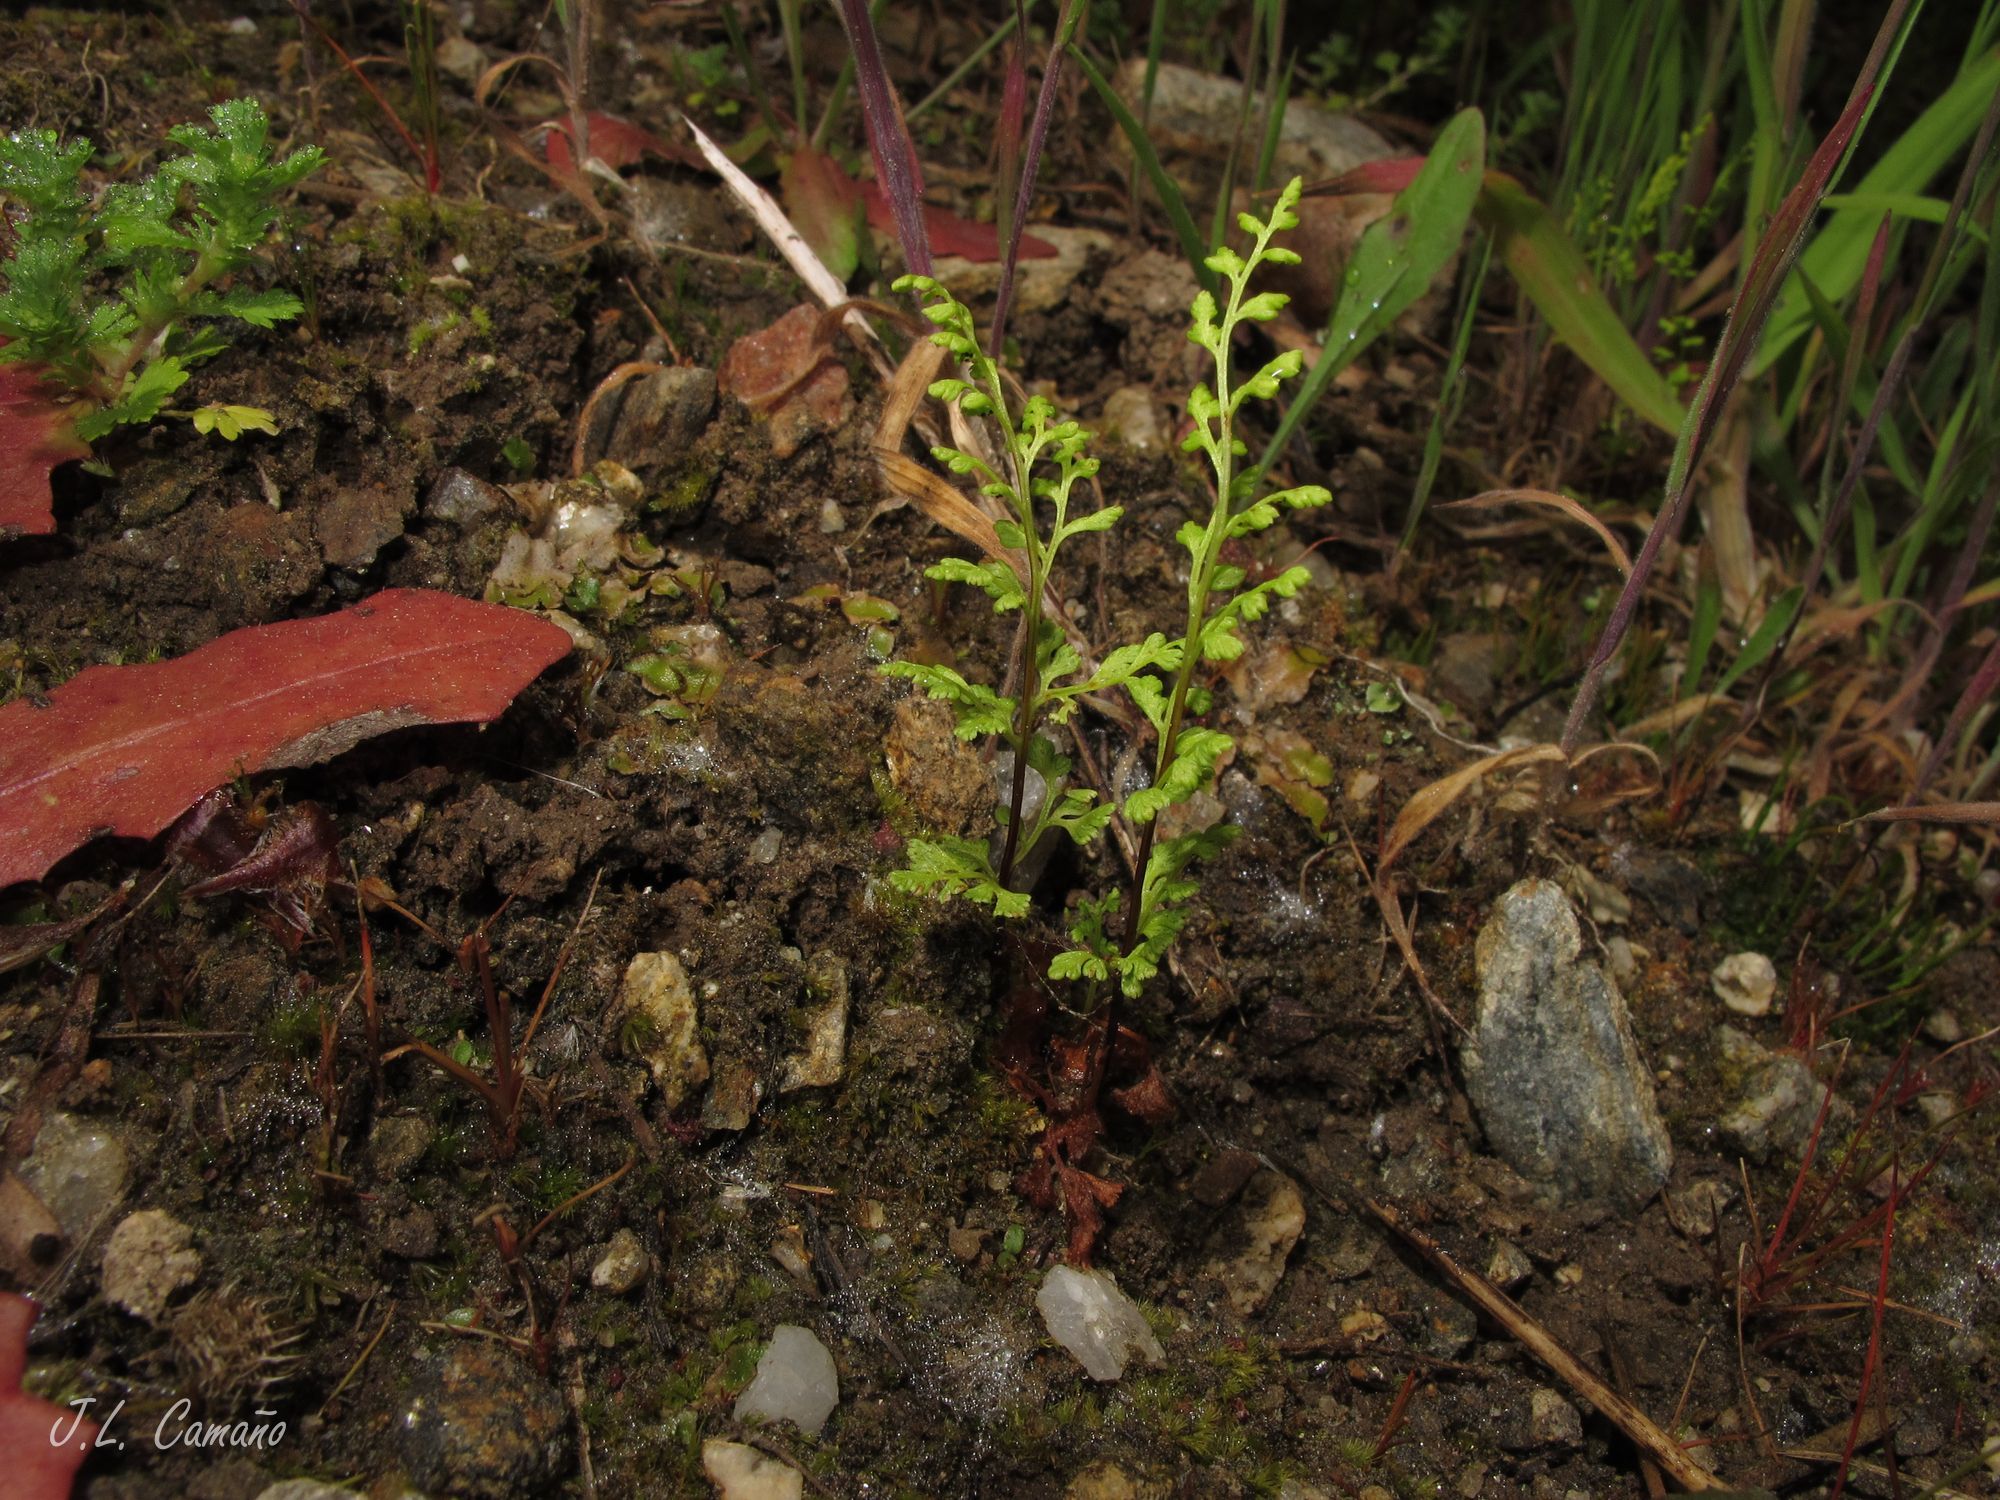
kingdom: Plantae
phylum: Tracheophyta
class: Polypodiopsida
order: Polypodiales
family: Pteridaceae
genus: Anogramma
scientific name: Anogramma leptophylla
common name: Jersey fern
